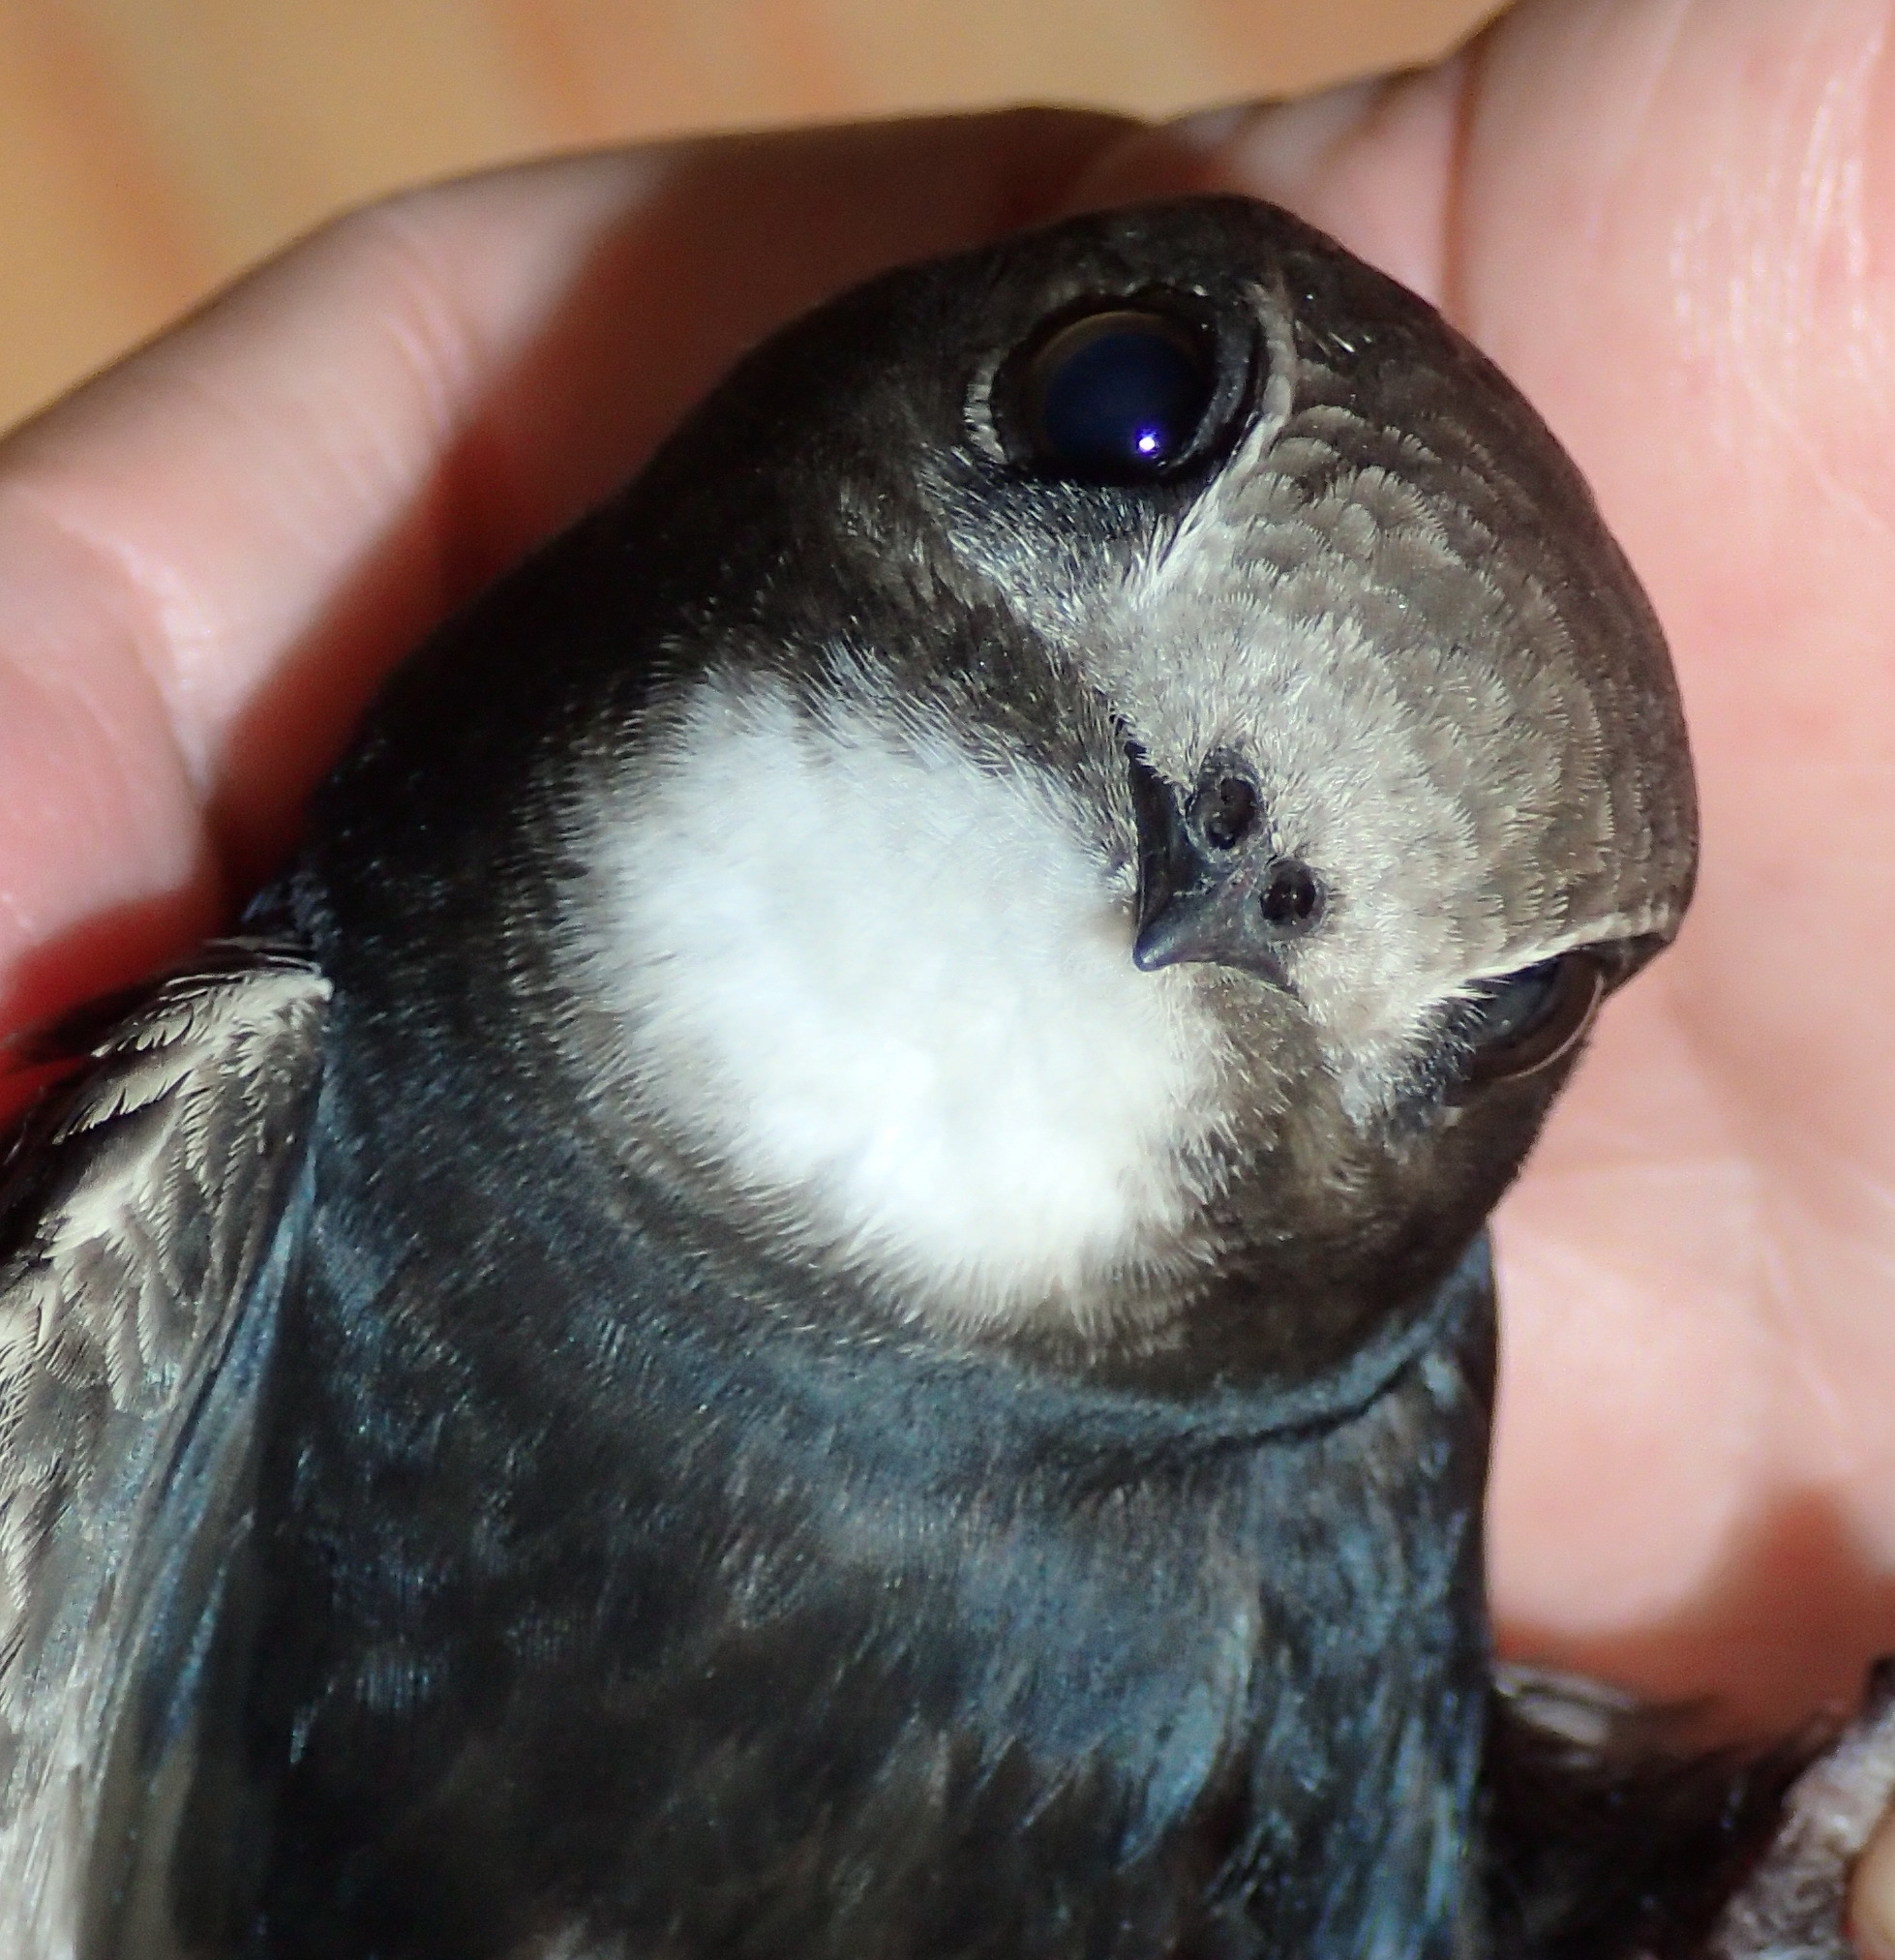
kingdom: Animalia
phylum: Chordata
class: Aves
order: Apodiformes
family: Apodidae
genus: Apus
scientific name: Apus caffer
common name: White-rumped swift
